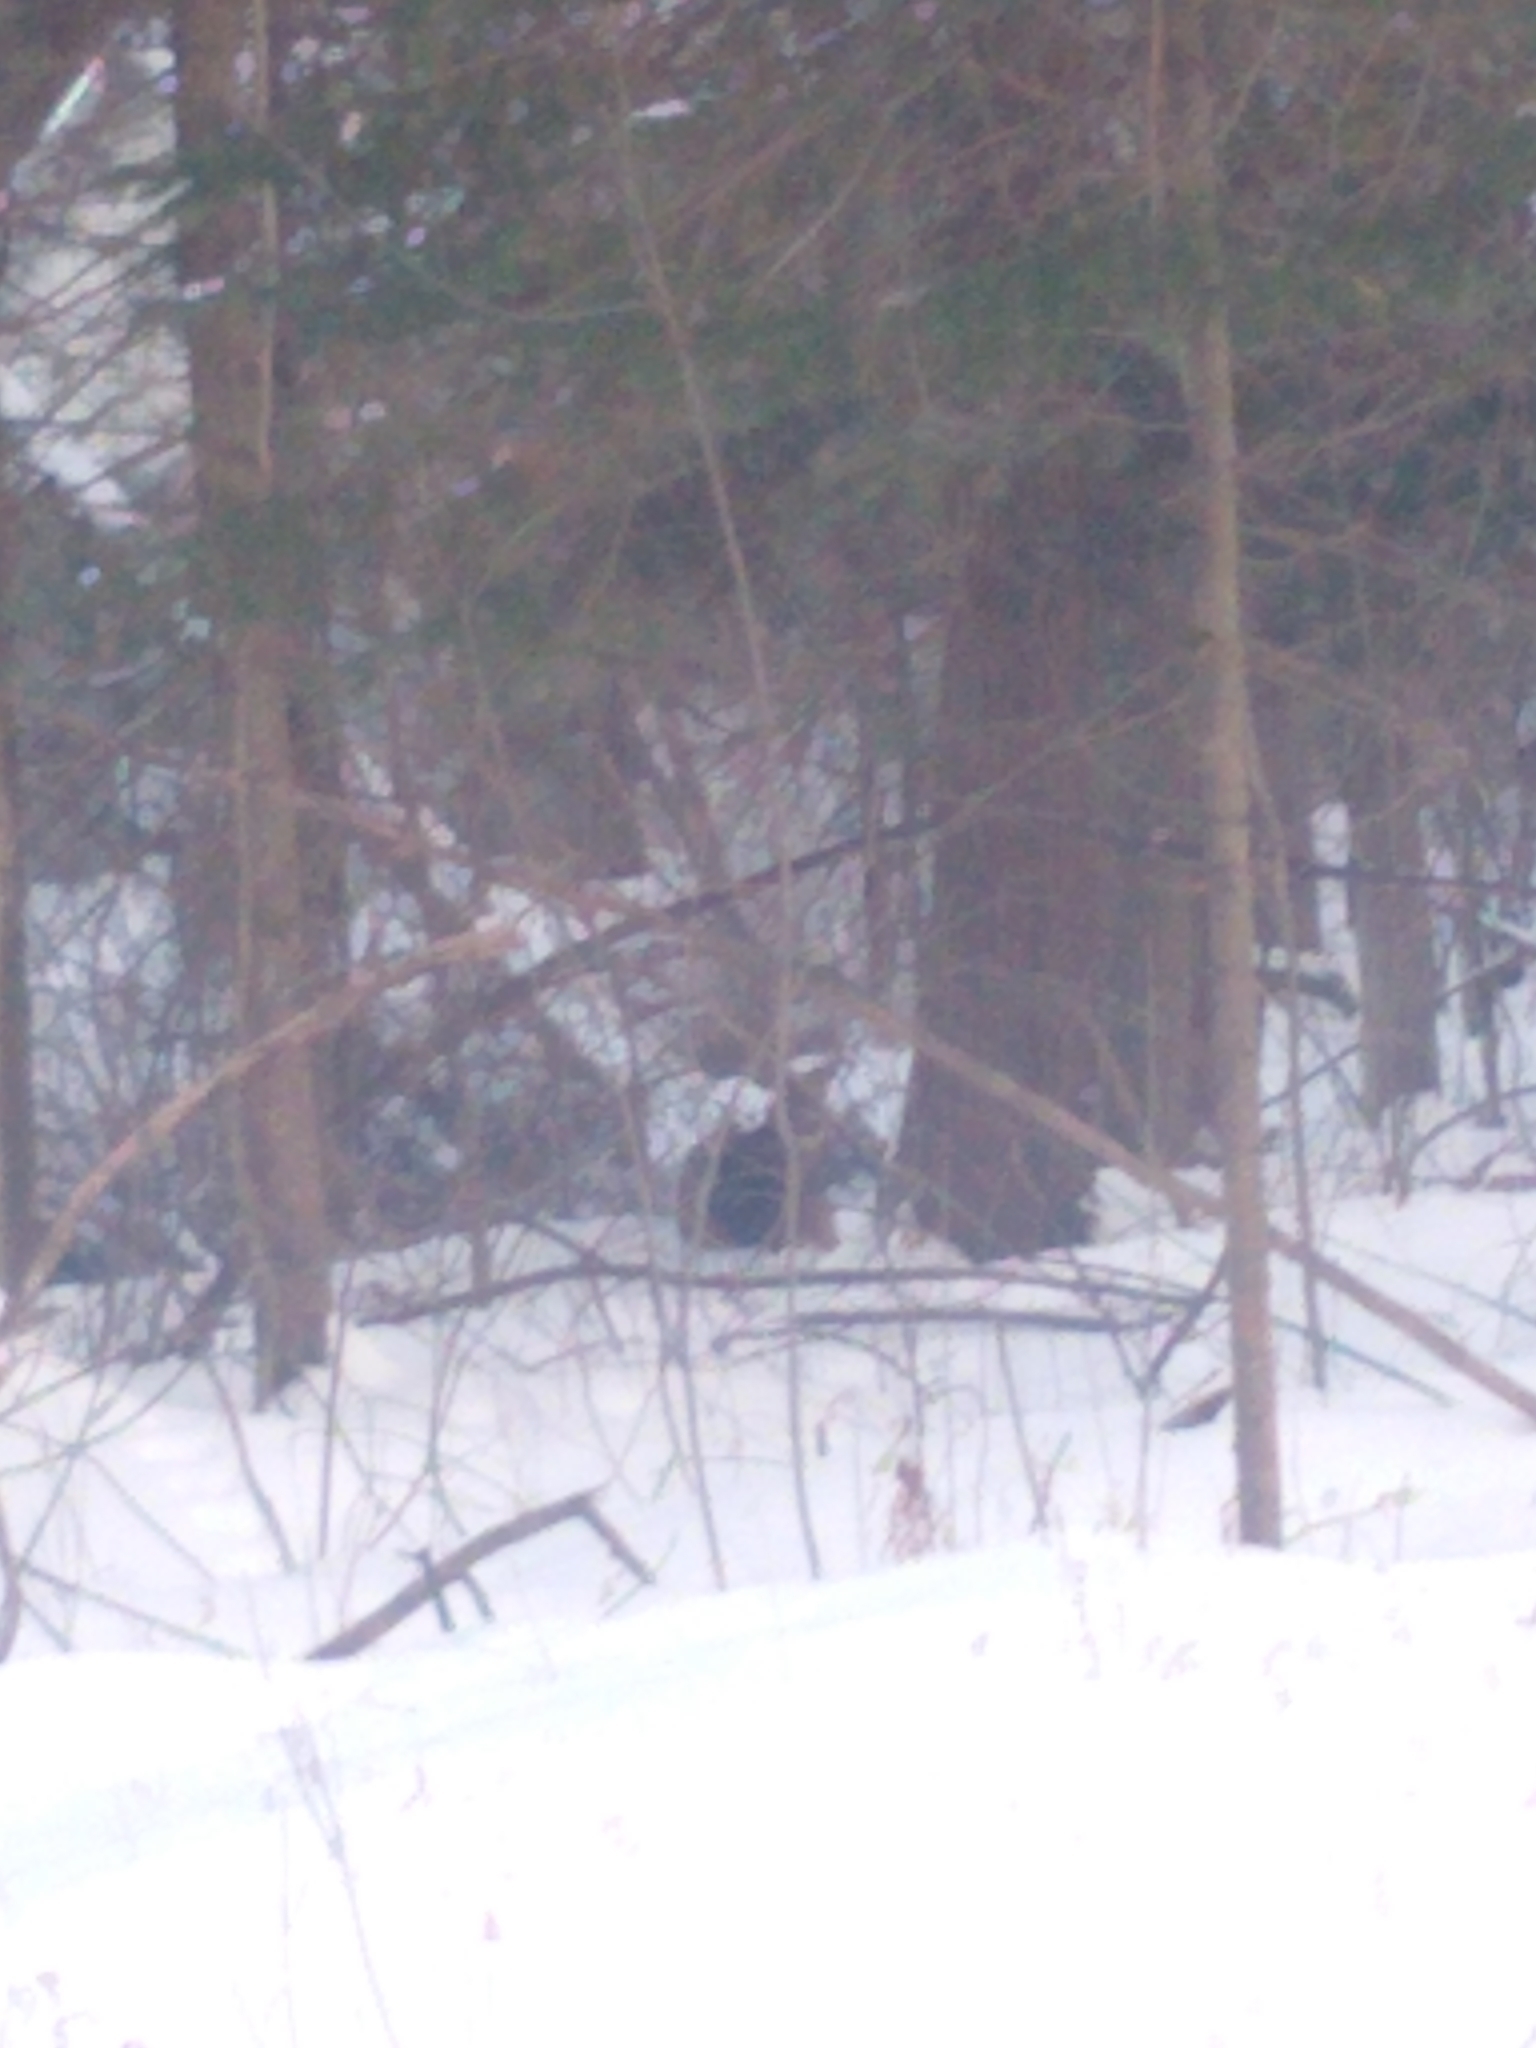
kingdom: Animalia
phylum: Chordata
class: Mammalia
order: Artiodactyla
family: Cervidae
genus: Odocoileus
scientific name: Odocoileus virginianus
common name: White-tailed deer
